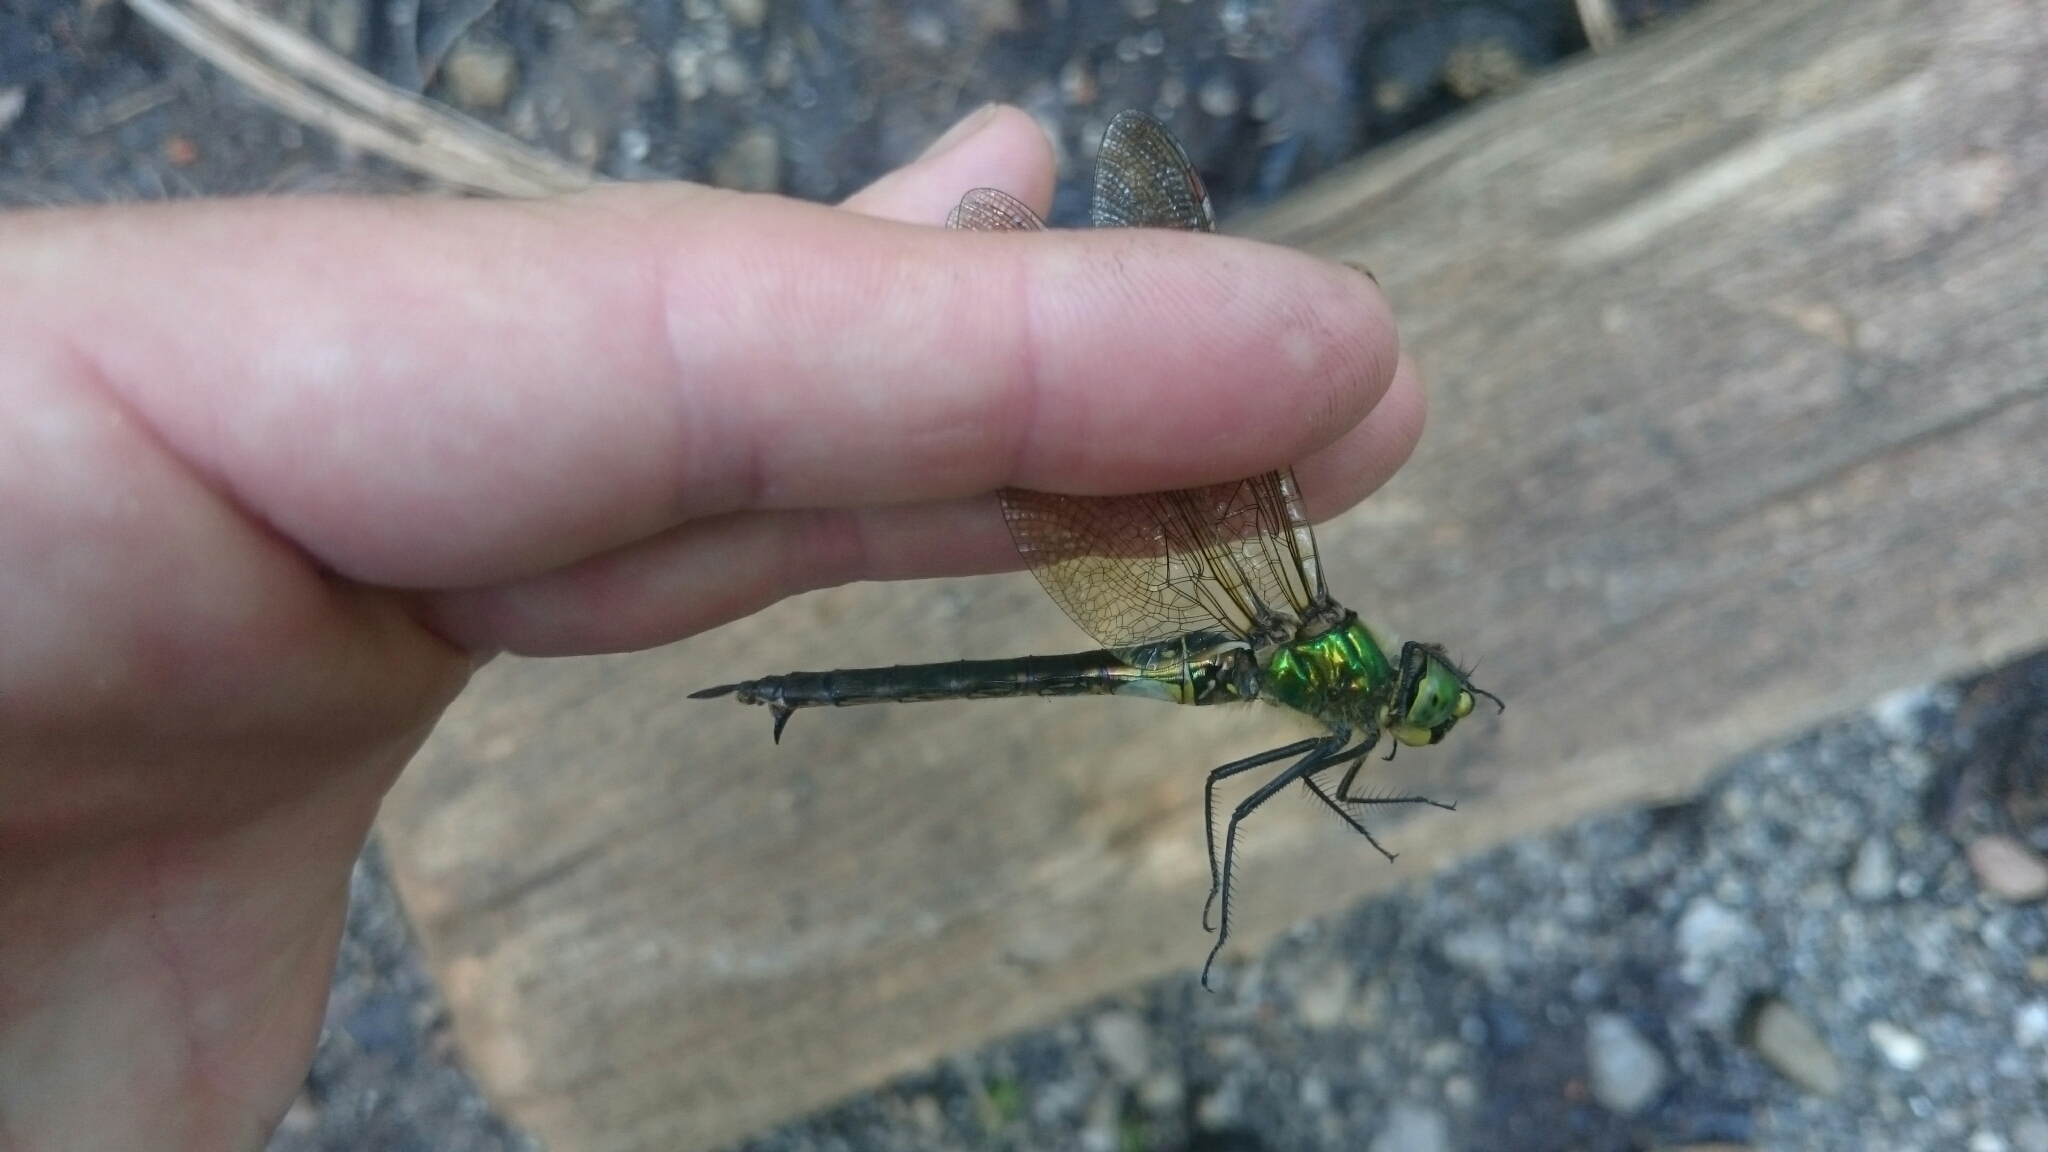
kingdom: Animalia
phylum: Arthropoda
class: Insecta
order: Odonata
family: Corduliidae
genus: Somatochlora
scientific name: Somatochlora metallica
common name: Brilliant emerald
